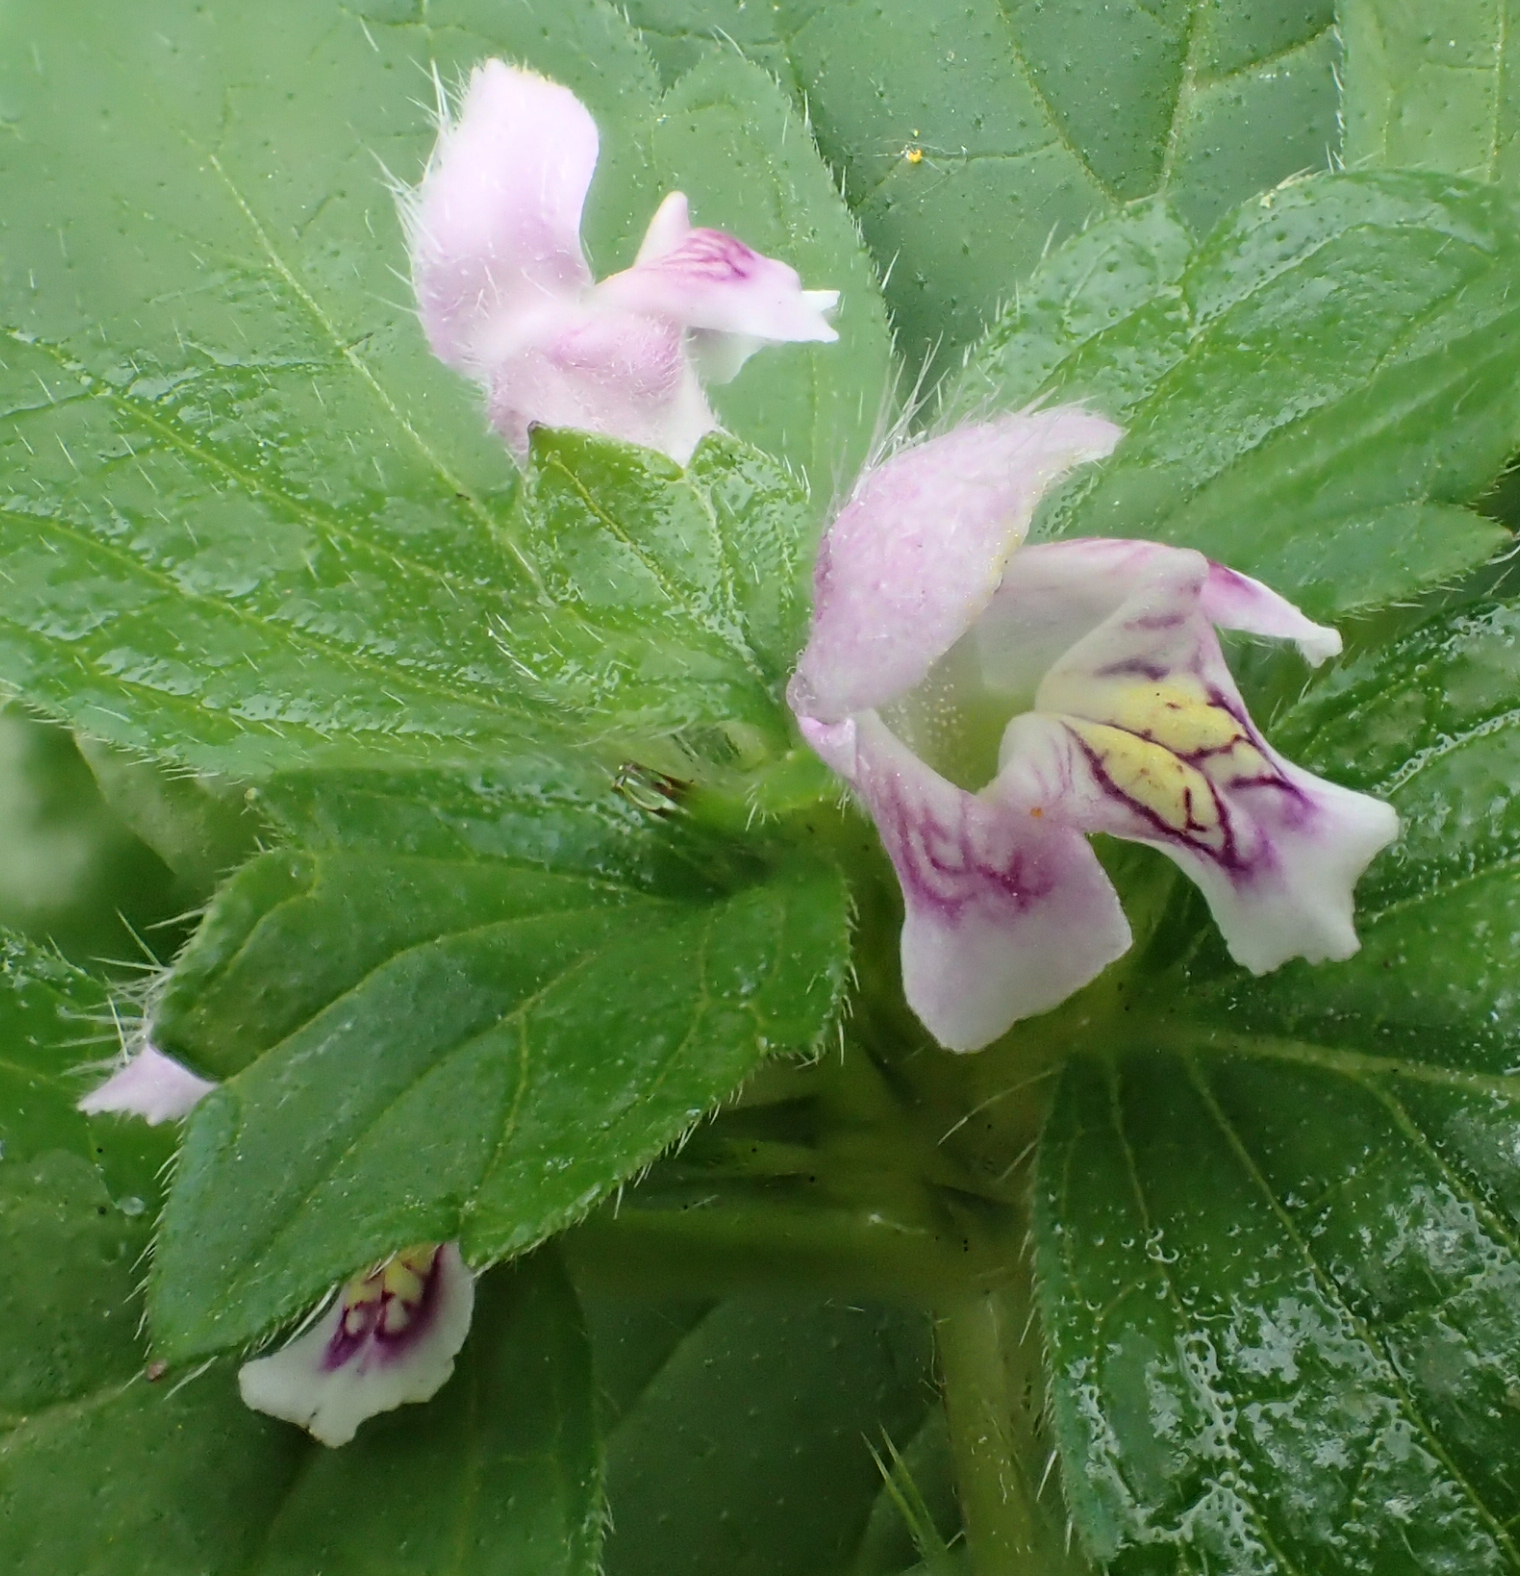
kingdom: Plantae
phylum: Tracheophyta
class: Magnoliopsida
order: Lamiales
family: Lamiaceae
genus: Galeopsis
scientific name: Galeopsis tetrahit
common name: Common hemp-nettle
